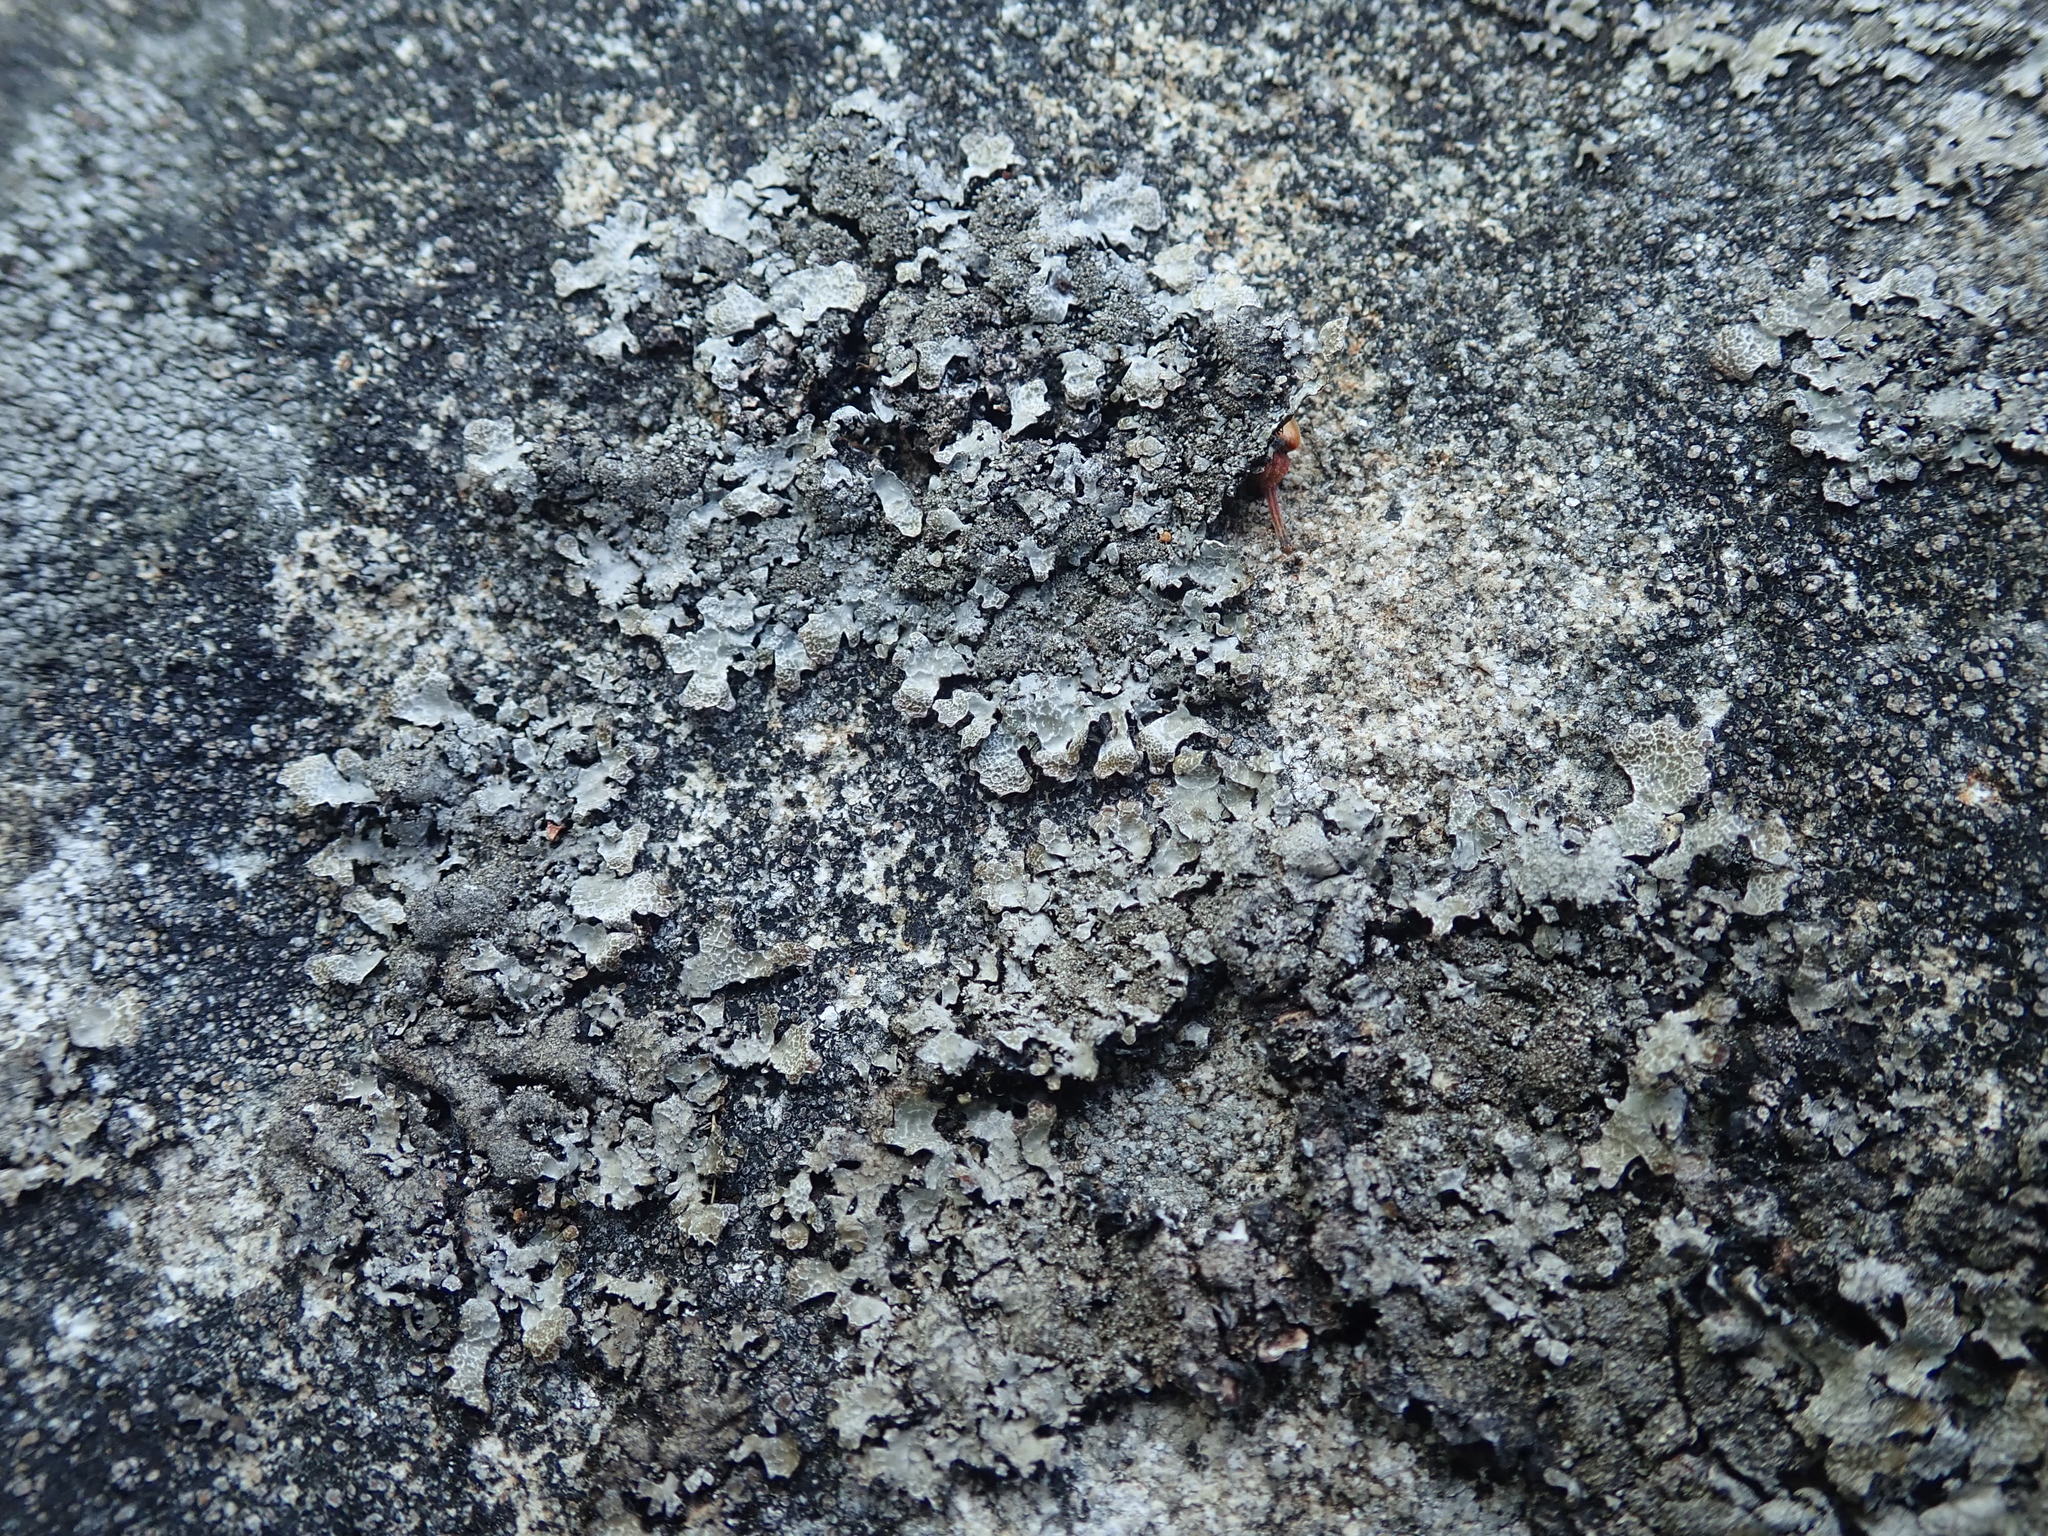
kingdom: Fungi
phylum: Ascomycota
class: Lecanoromycetes
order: Lecanorales
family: Parmeliaceae
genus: Parmelia
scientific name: Parmelia saxatilis
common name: Salted shield lichen
